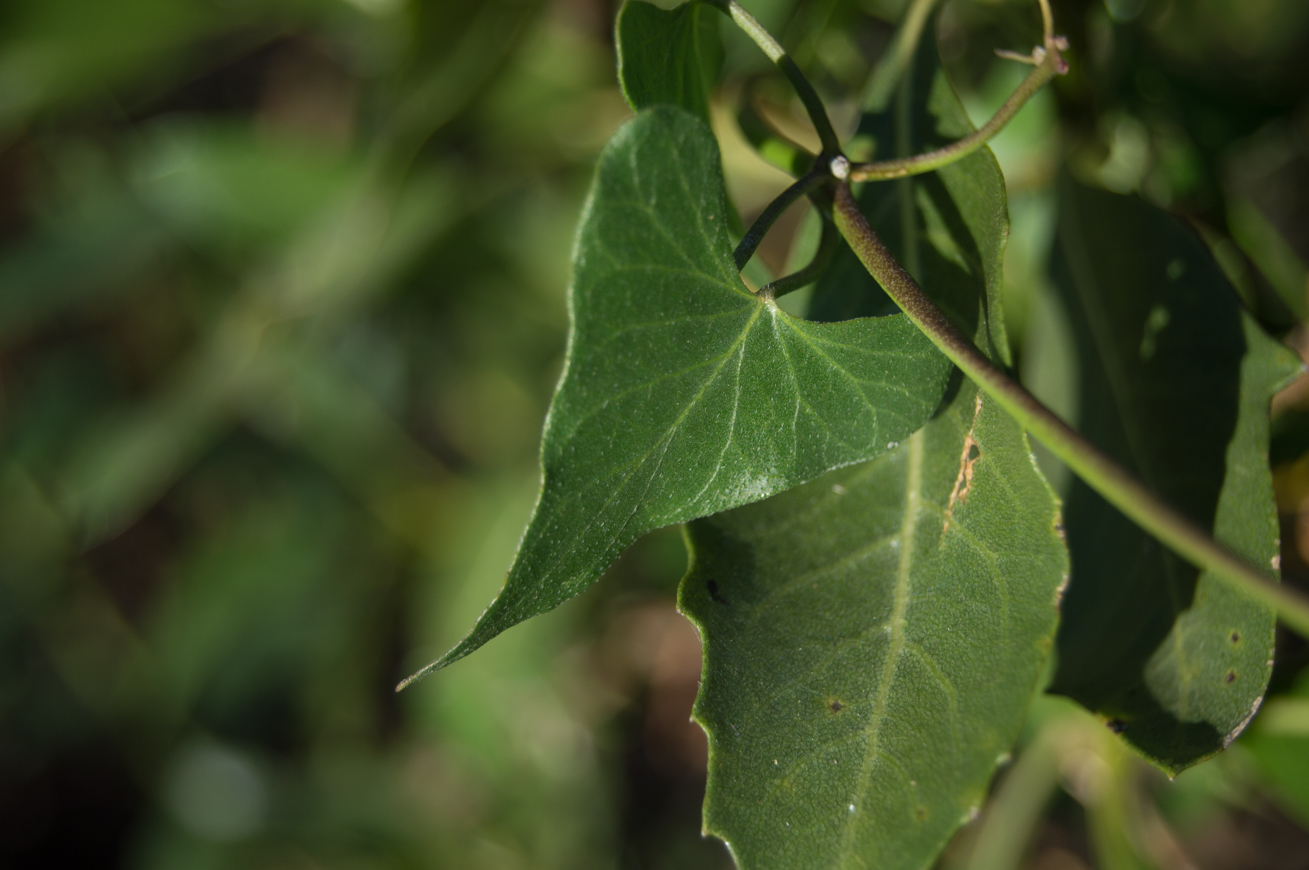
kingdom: Plantae
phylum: Tracheophyta
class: Magnoliopsida
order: Gentianales
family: Apocynaceae
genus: Philibertia
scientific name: Philibertia gilliesii
